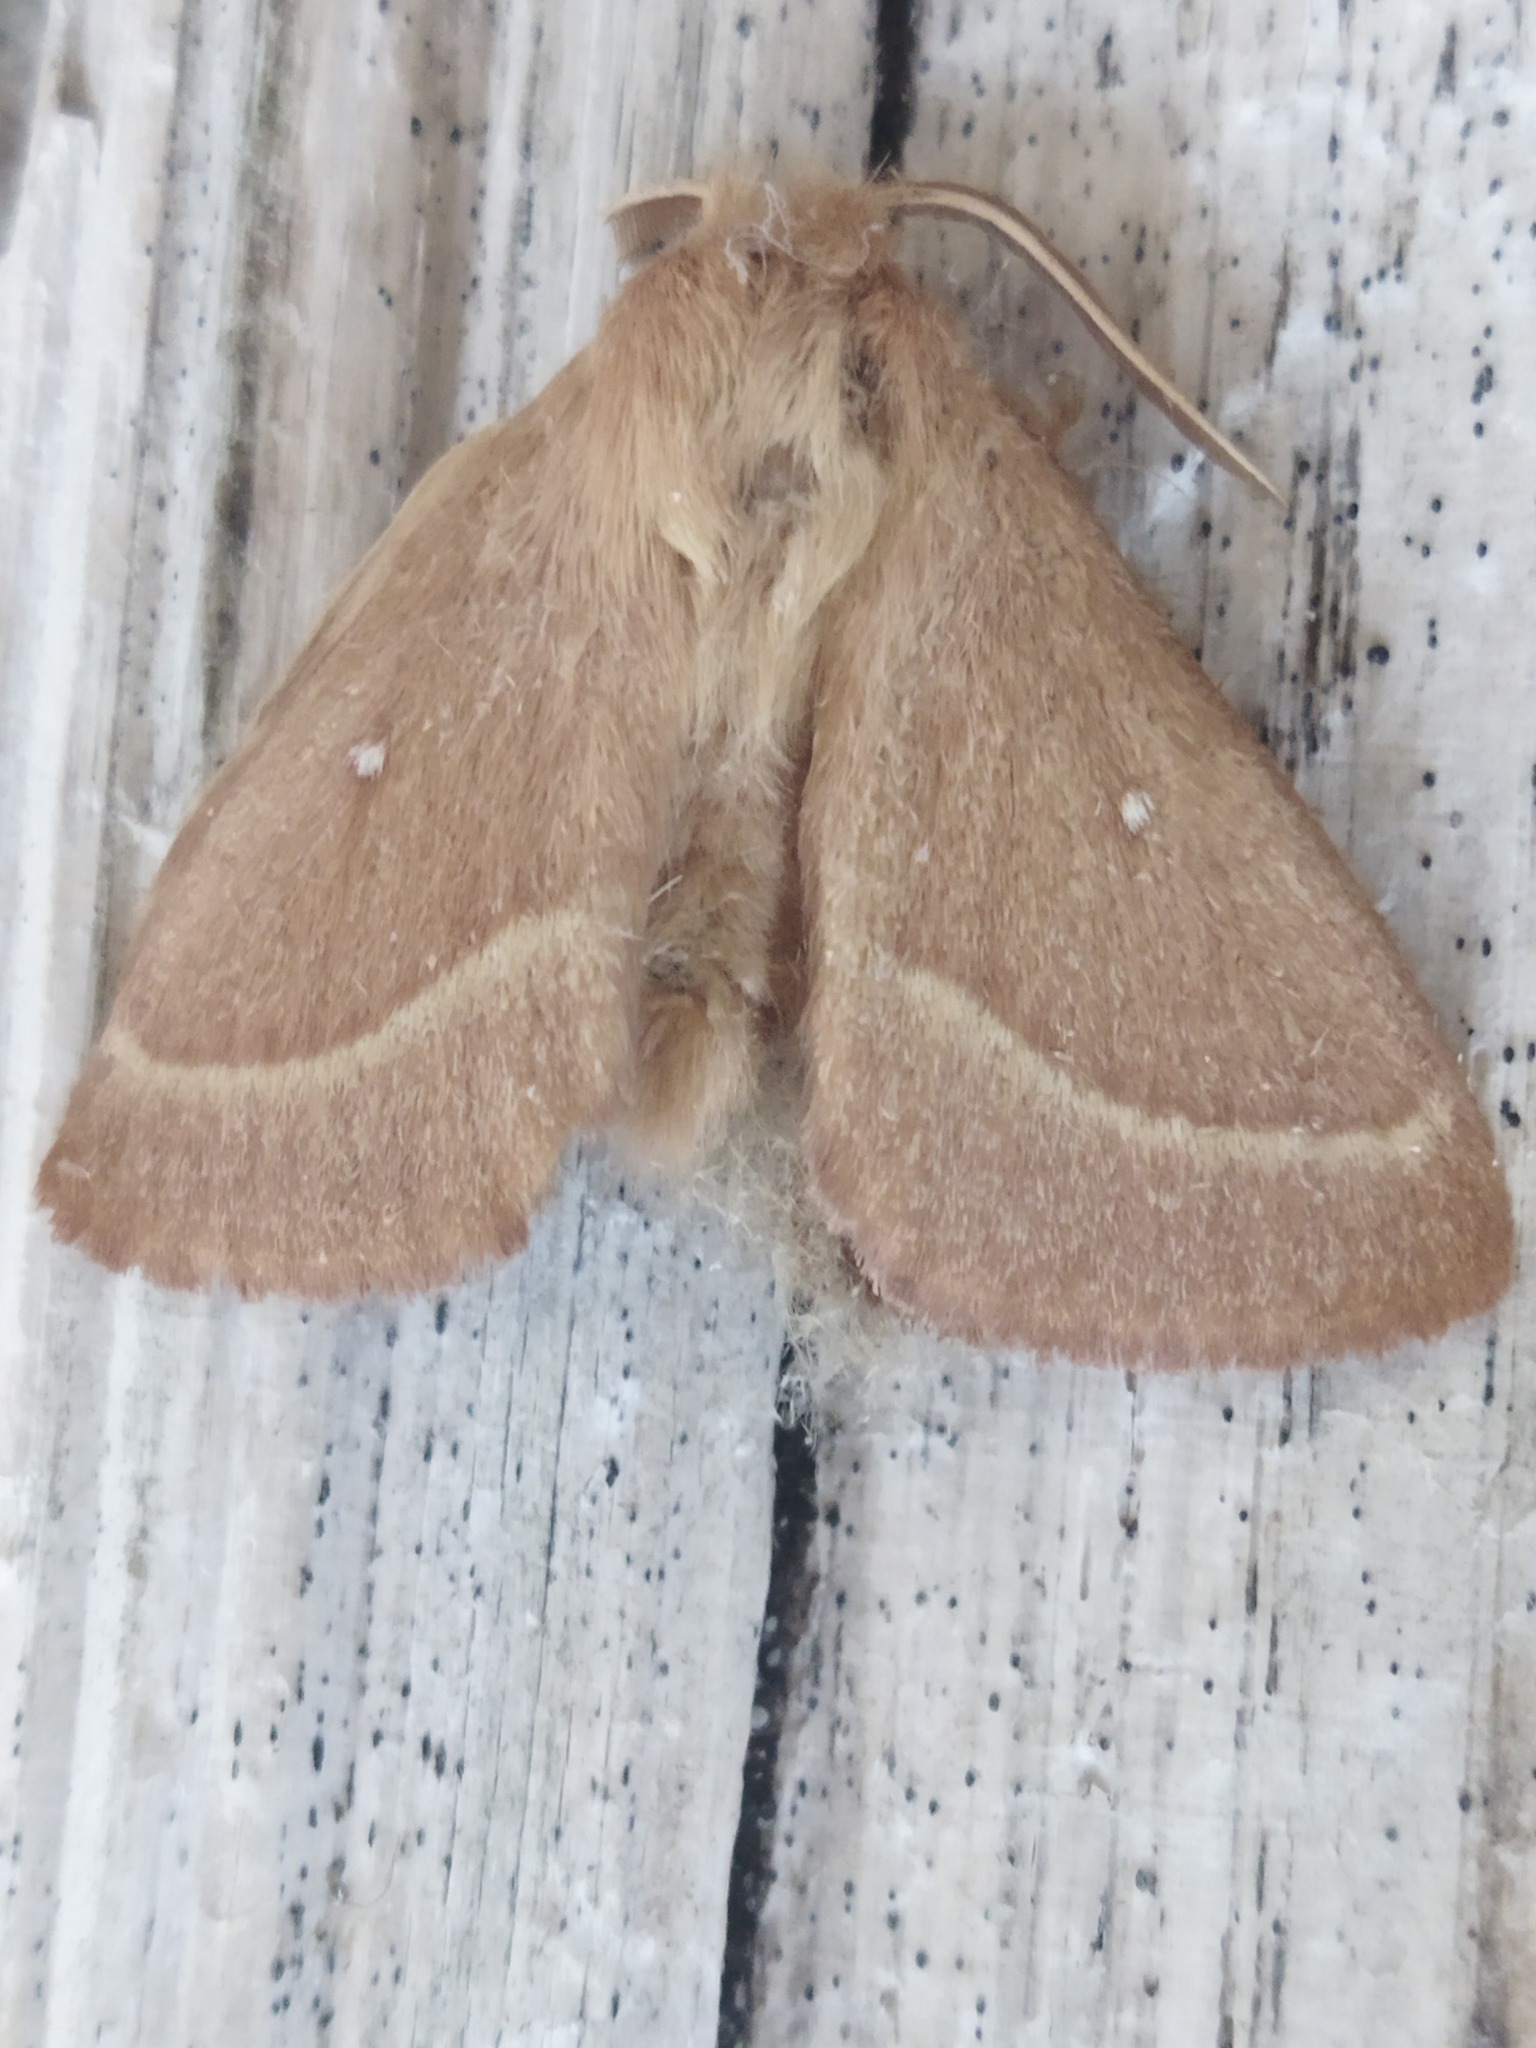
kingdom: Animalia
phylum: Arthropoda
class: Insecta
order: Lepidoptera
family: Lasiocampidae
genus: Lasiocampa
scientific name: Lasiocampa trifolii
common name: Grass eggar
